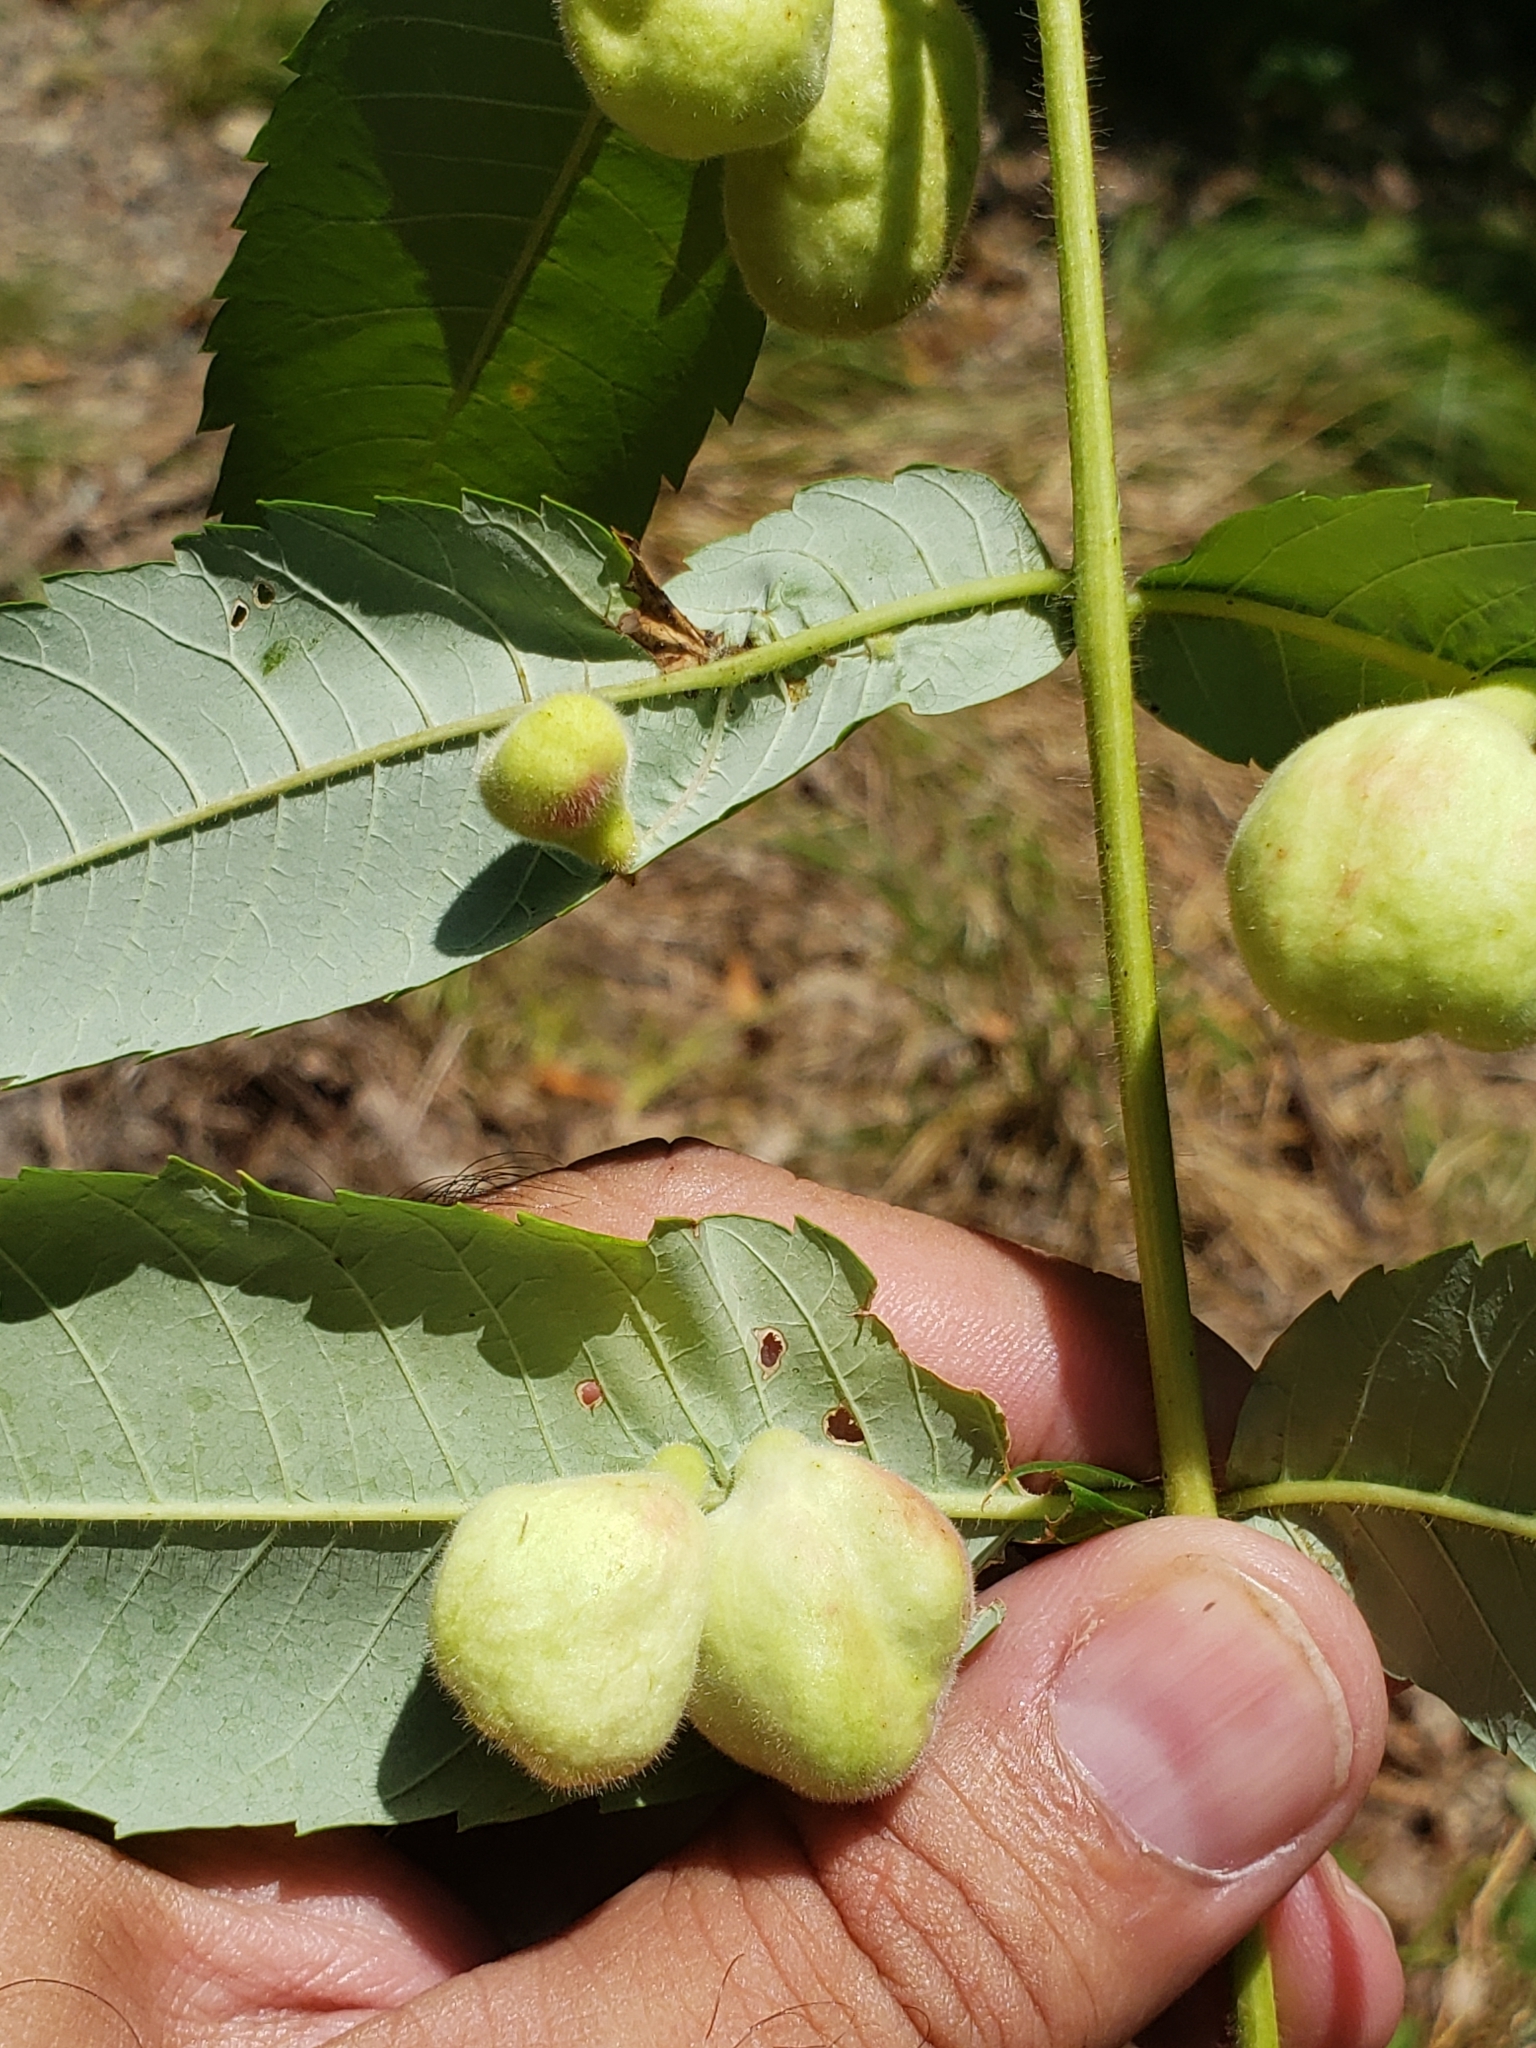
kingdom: Animalia
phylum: Arthropoda
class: Insecta
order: Hemiptera
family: Aphididae
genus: Melaphis
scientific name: Melaphis rhois
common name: Sumac gall aphid
